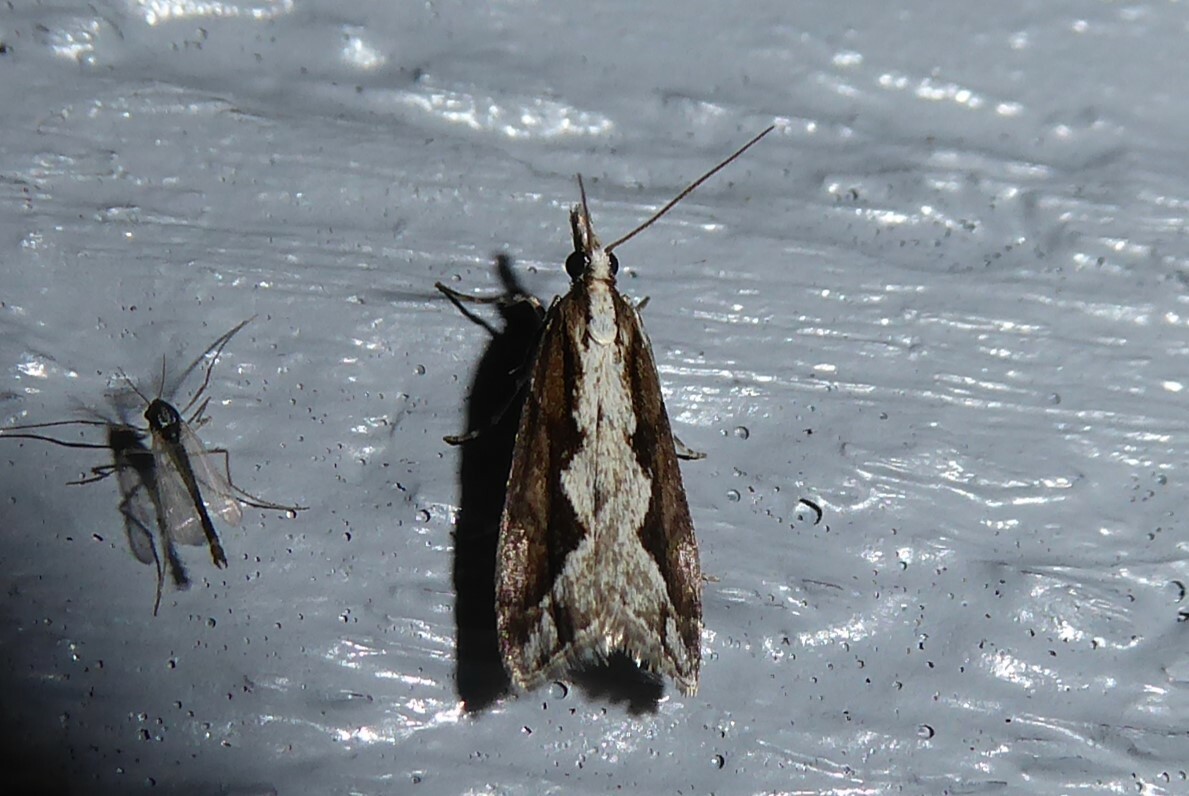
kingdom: Animalia
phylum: Arthropoda
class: Insecta
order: Lepidoptera
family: Crambidae
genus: Eudonia
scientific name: Eudonia steropaea
